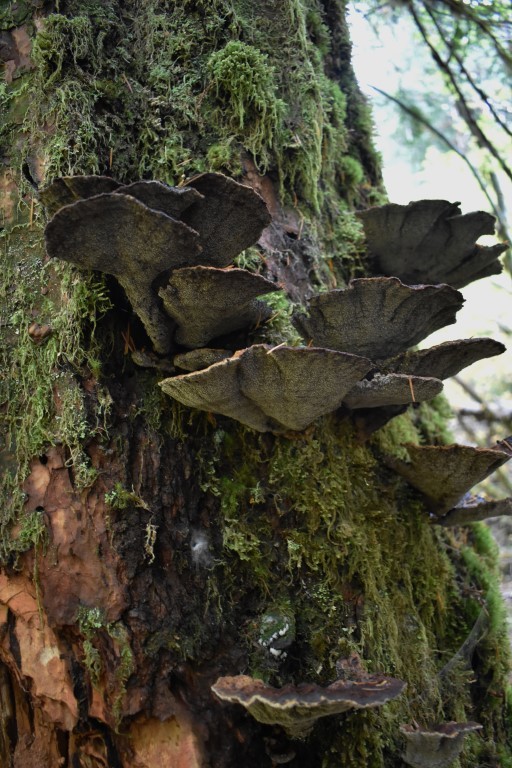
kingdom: Fungi
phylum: Basidiomycota
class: Agaricomycetes
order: Polyporales
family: Laetiporaceae
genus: Phaeolus
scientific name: Phaeolus schweinitzii
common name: Dyer's mazegill
